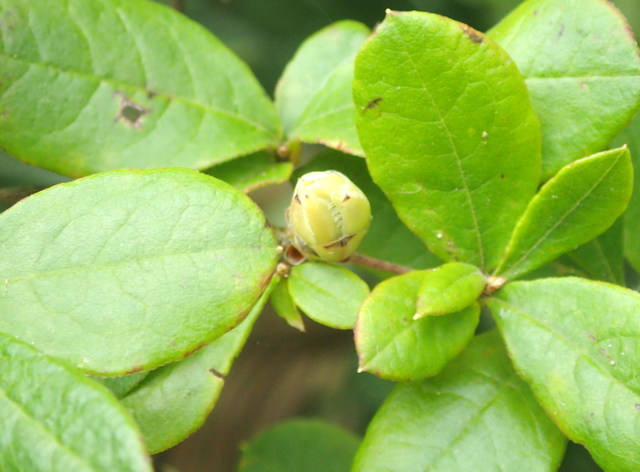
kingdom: Plantae
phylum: Tracheophyta
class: Magnoliopsida
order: Ericales
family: Ericaceae
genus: Rhododendron
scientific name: Rhododendron serrulatum
